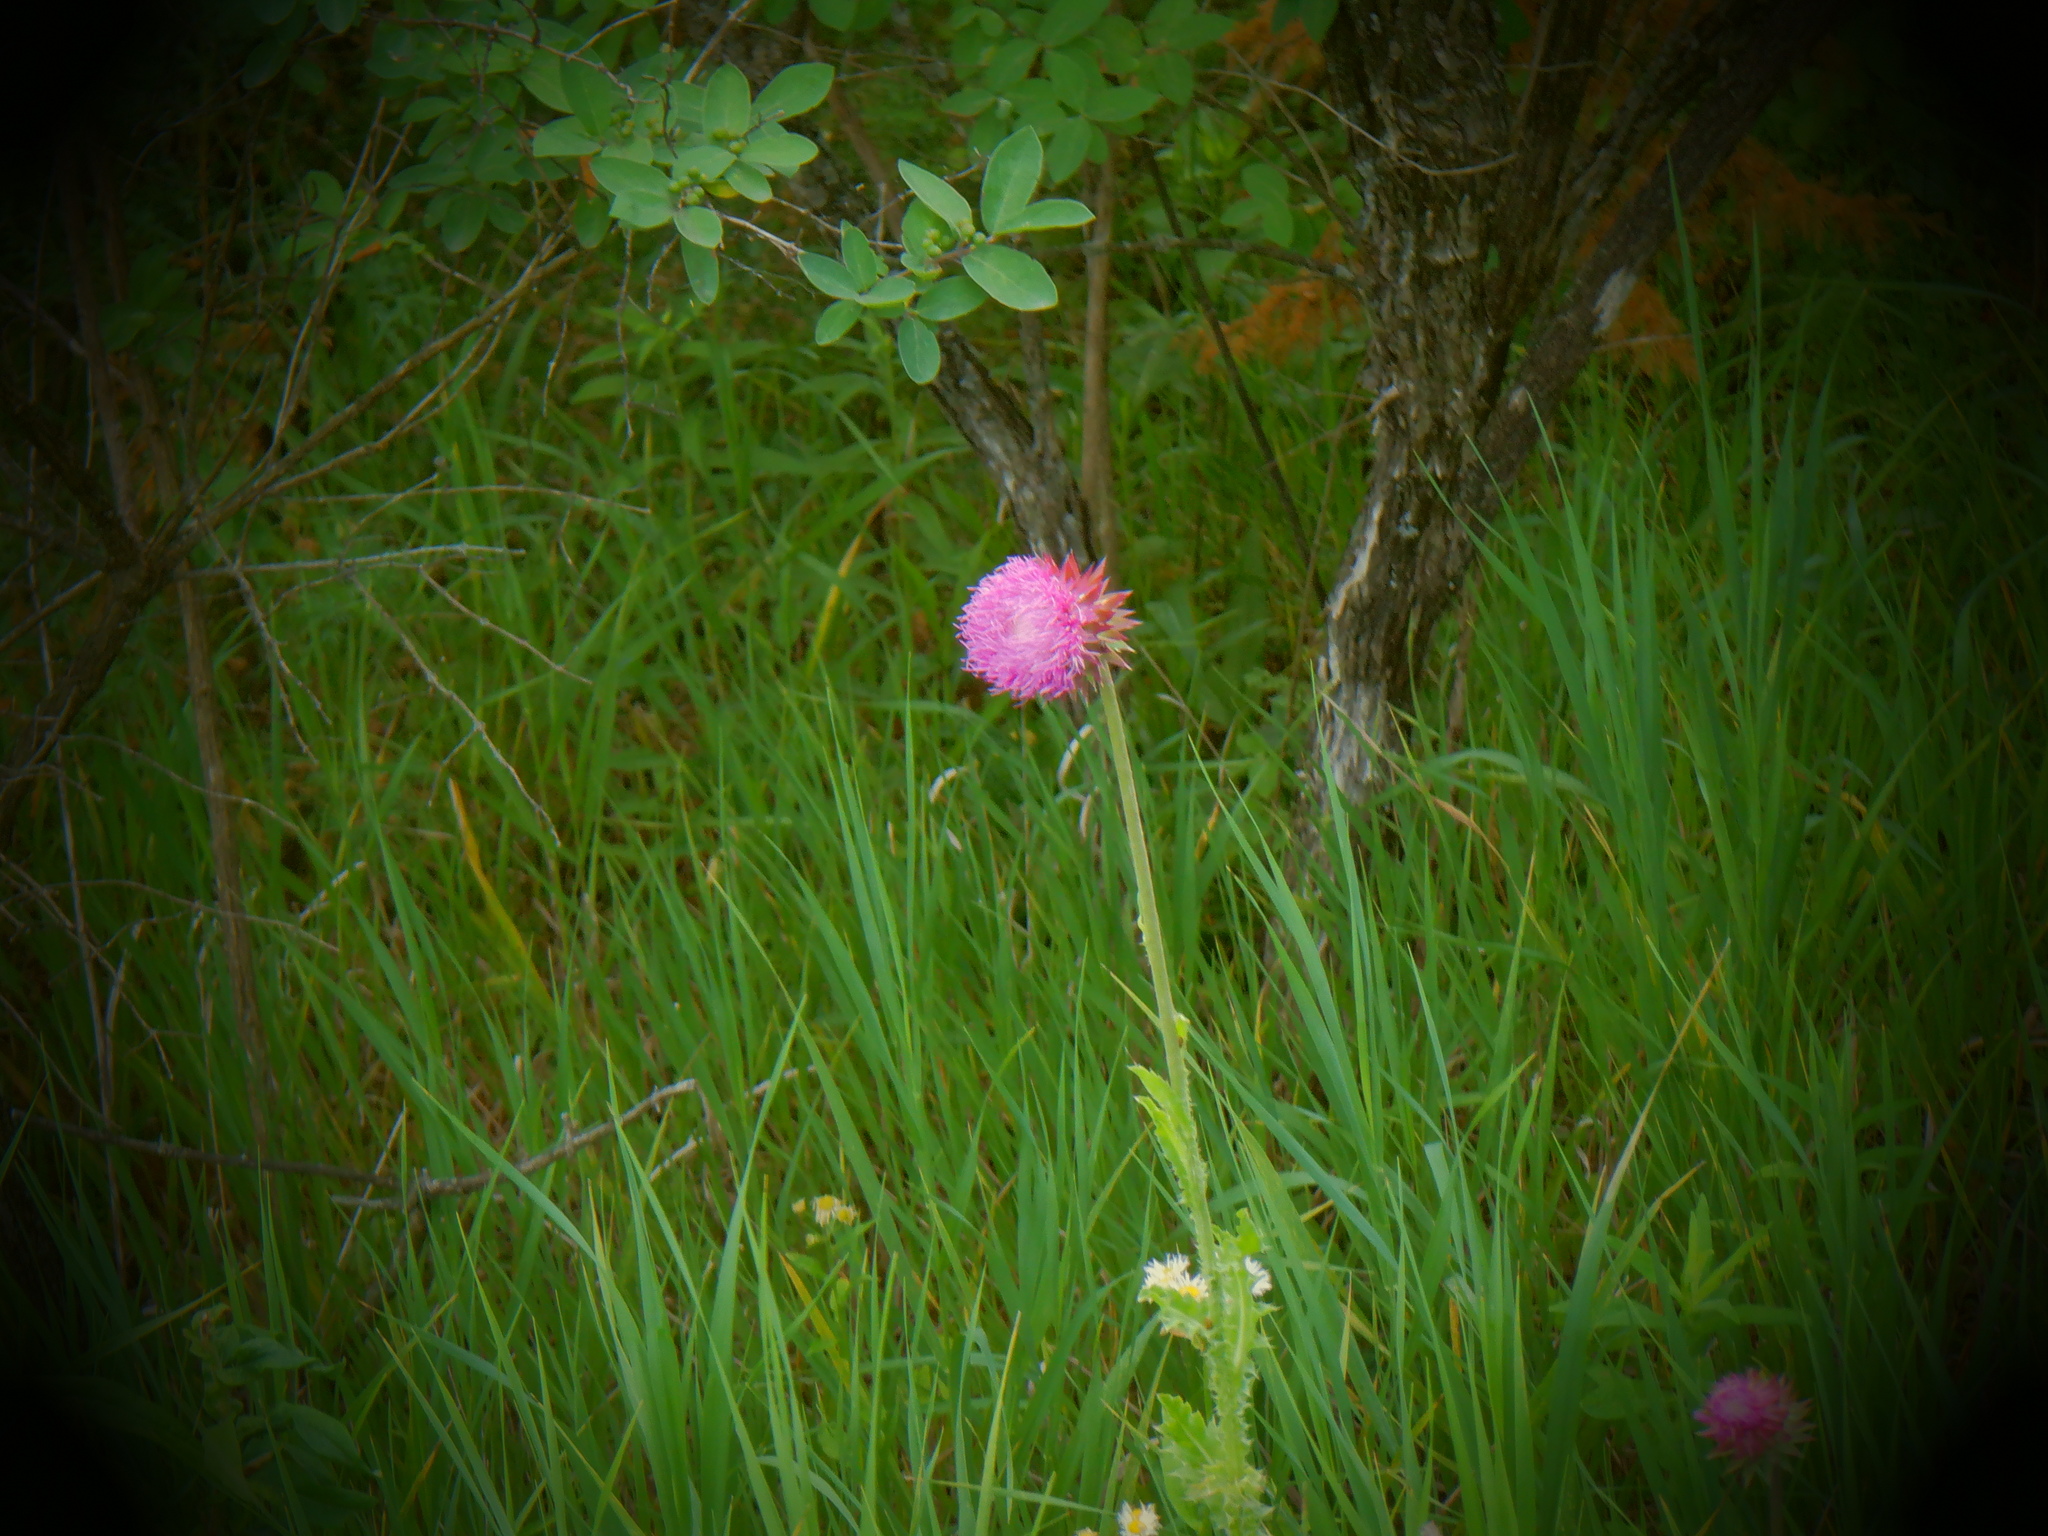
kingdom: Plantae
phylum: Tracheophyta
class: Magnoliopsida
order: Asterales
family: Asteraceae
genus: Carduus
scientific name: Carduus nutans
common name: Musk thistle
